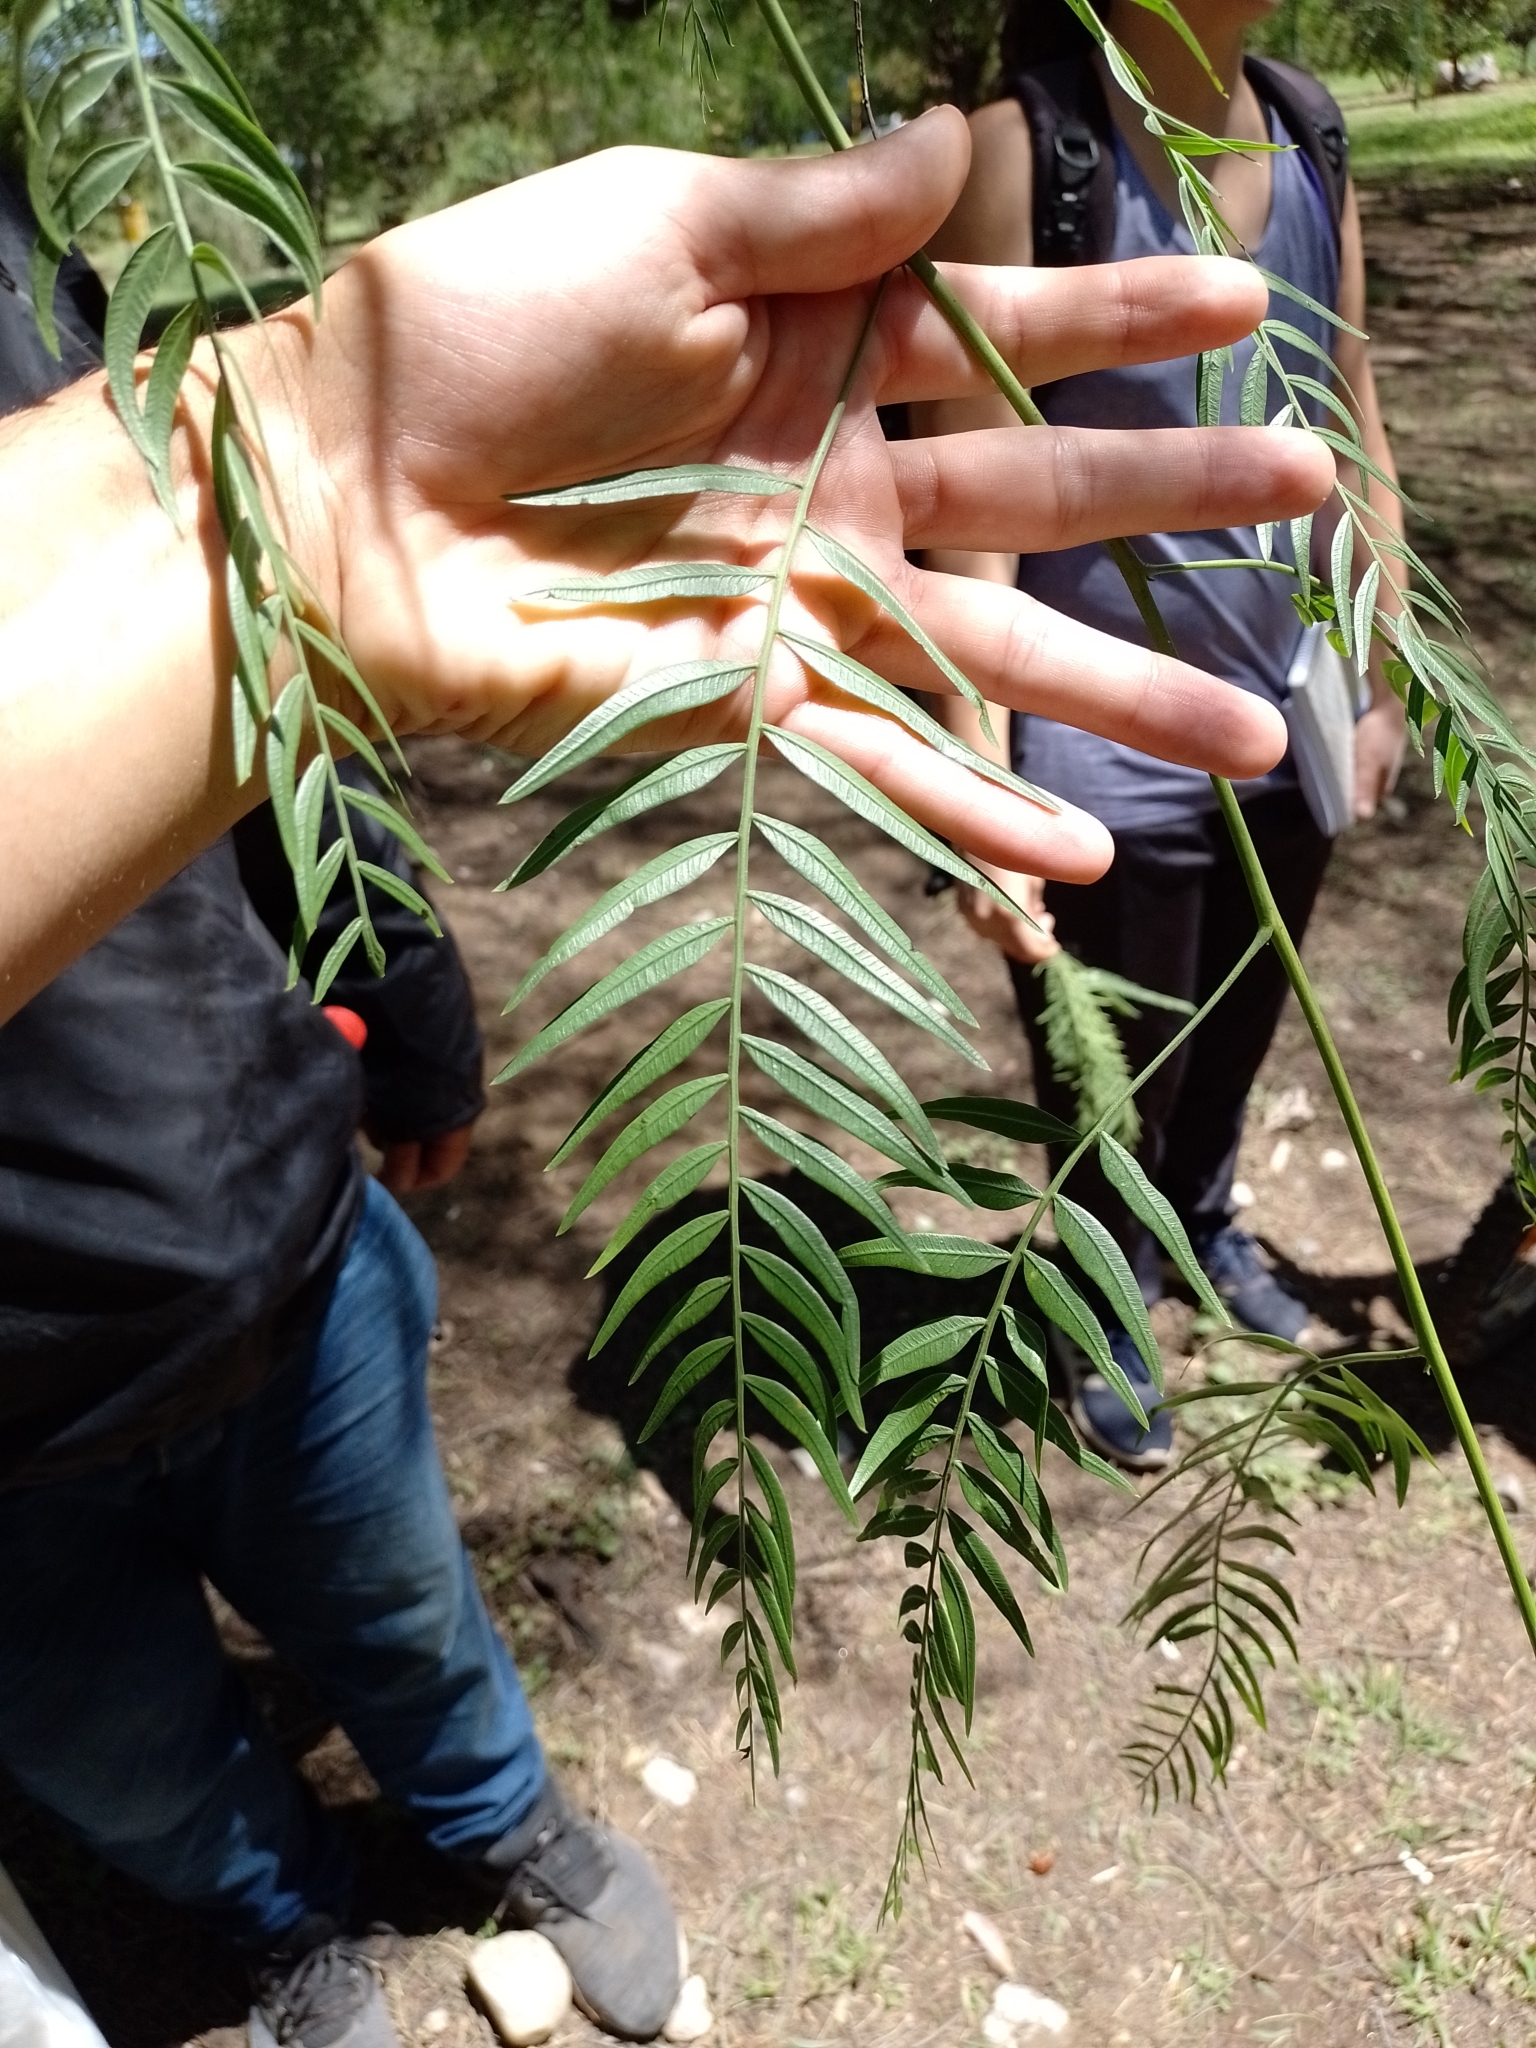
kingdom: Plantae
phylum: Tracheophyta
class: Magnoliopsida
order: Sapindales
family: Anacardiaceae
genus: Schinus
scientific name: Schinus areira
